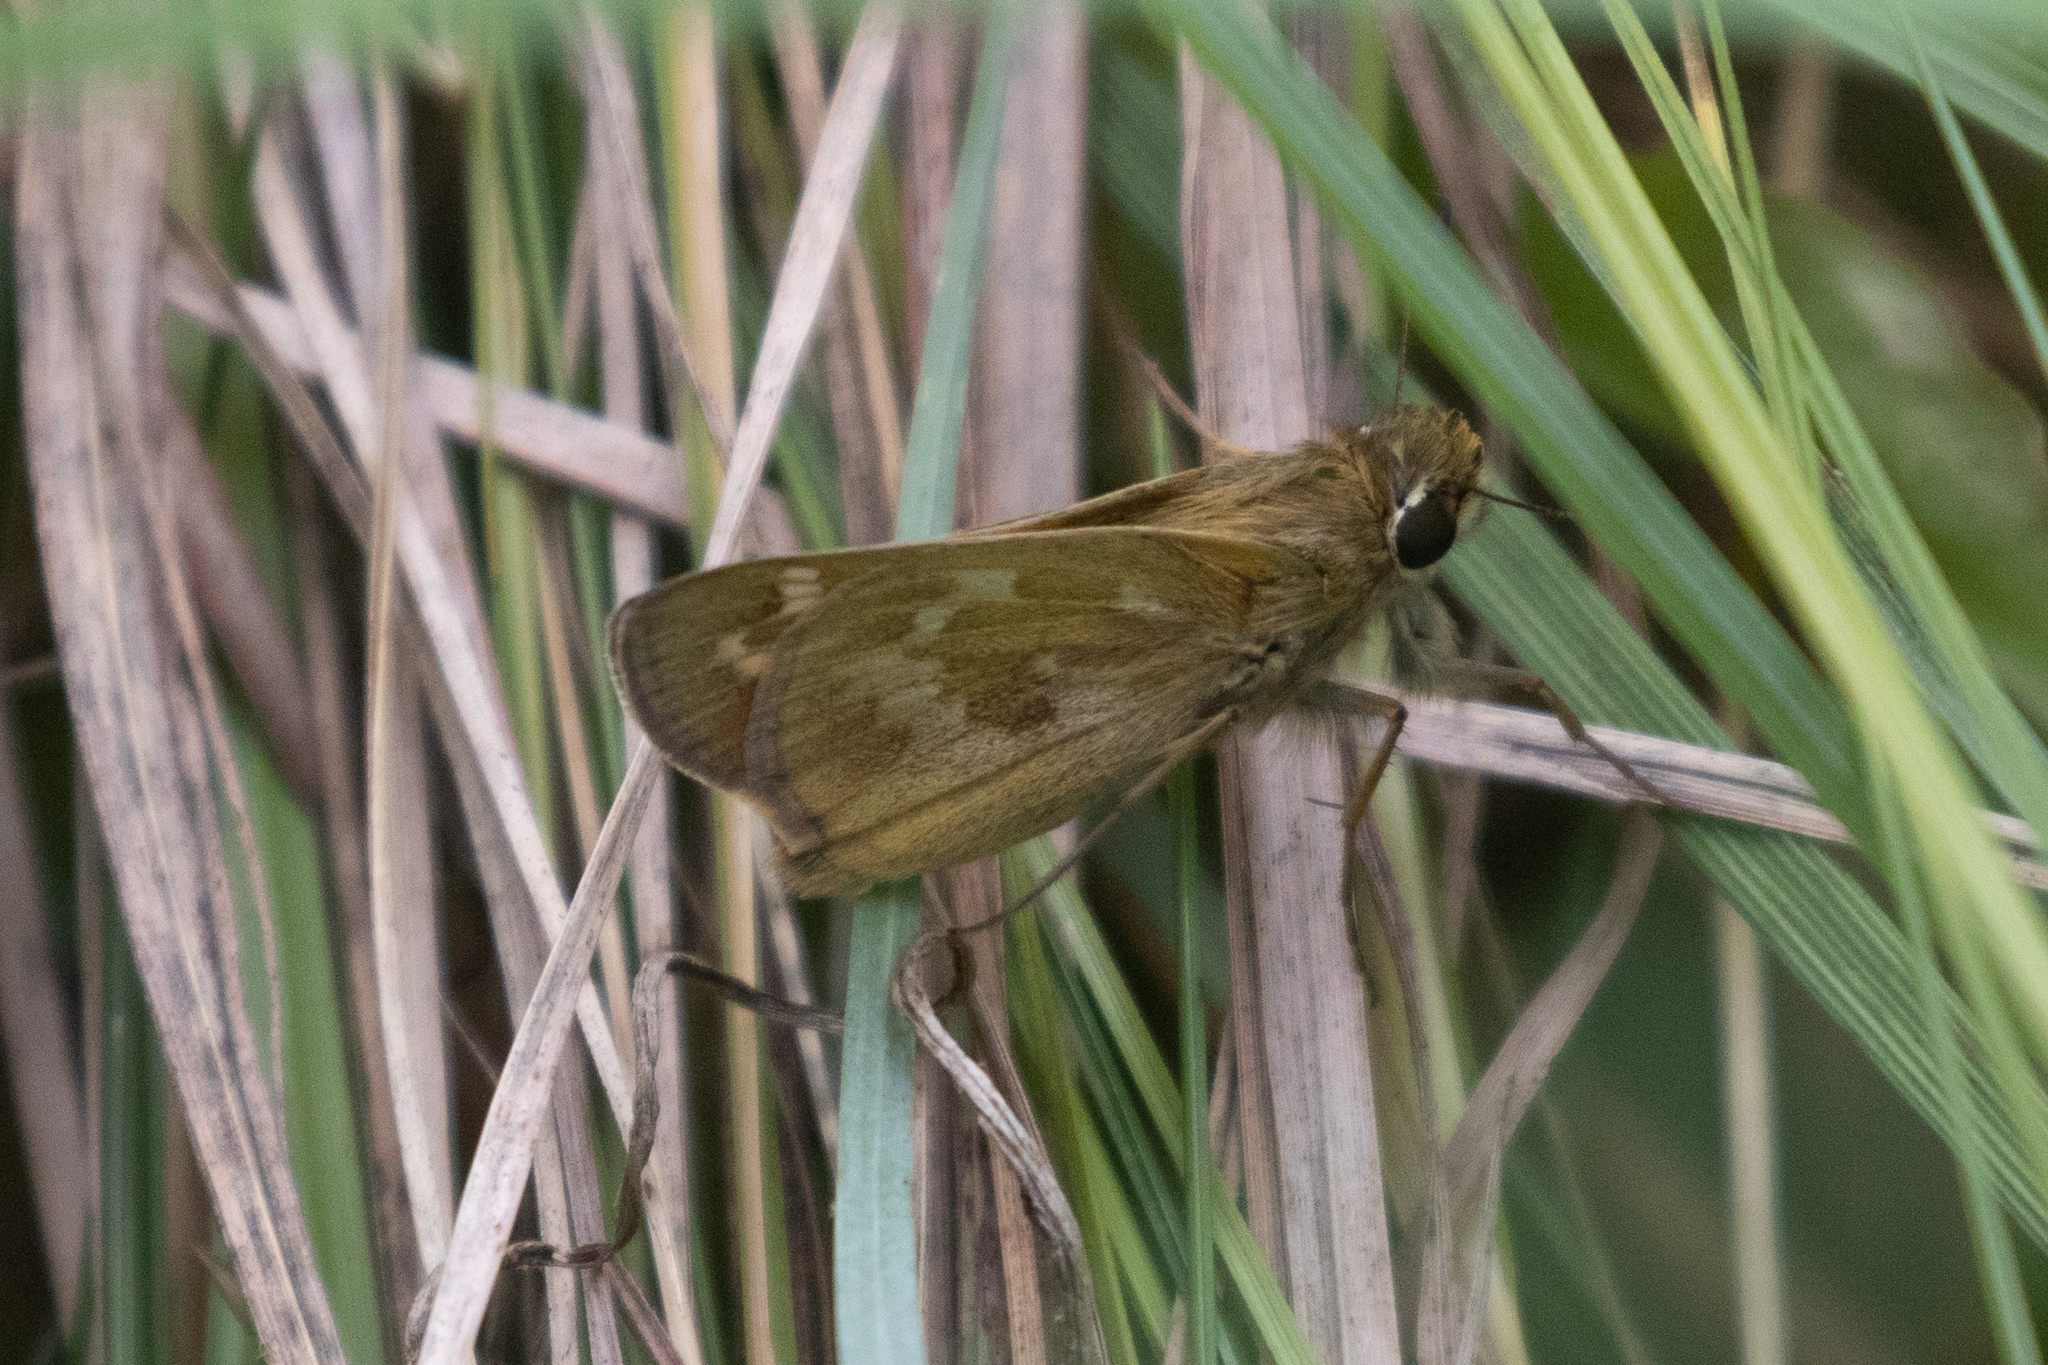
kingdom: Animalia
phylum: Arthropoda
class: Insecta
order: Lepidoptera
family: Hesperiidae
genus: Atalopedes
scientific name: Atalopedes
